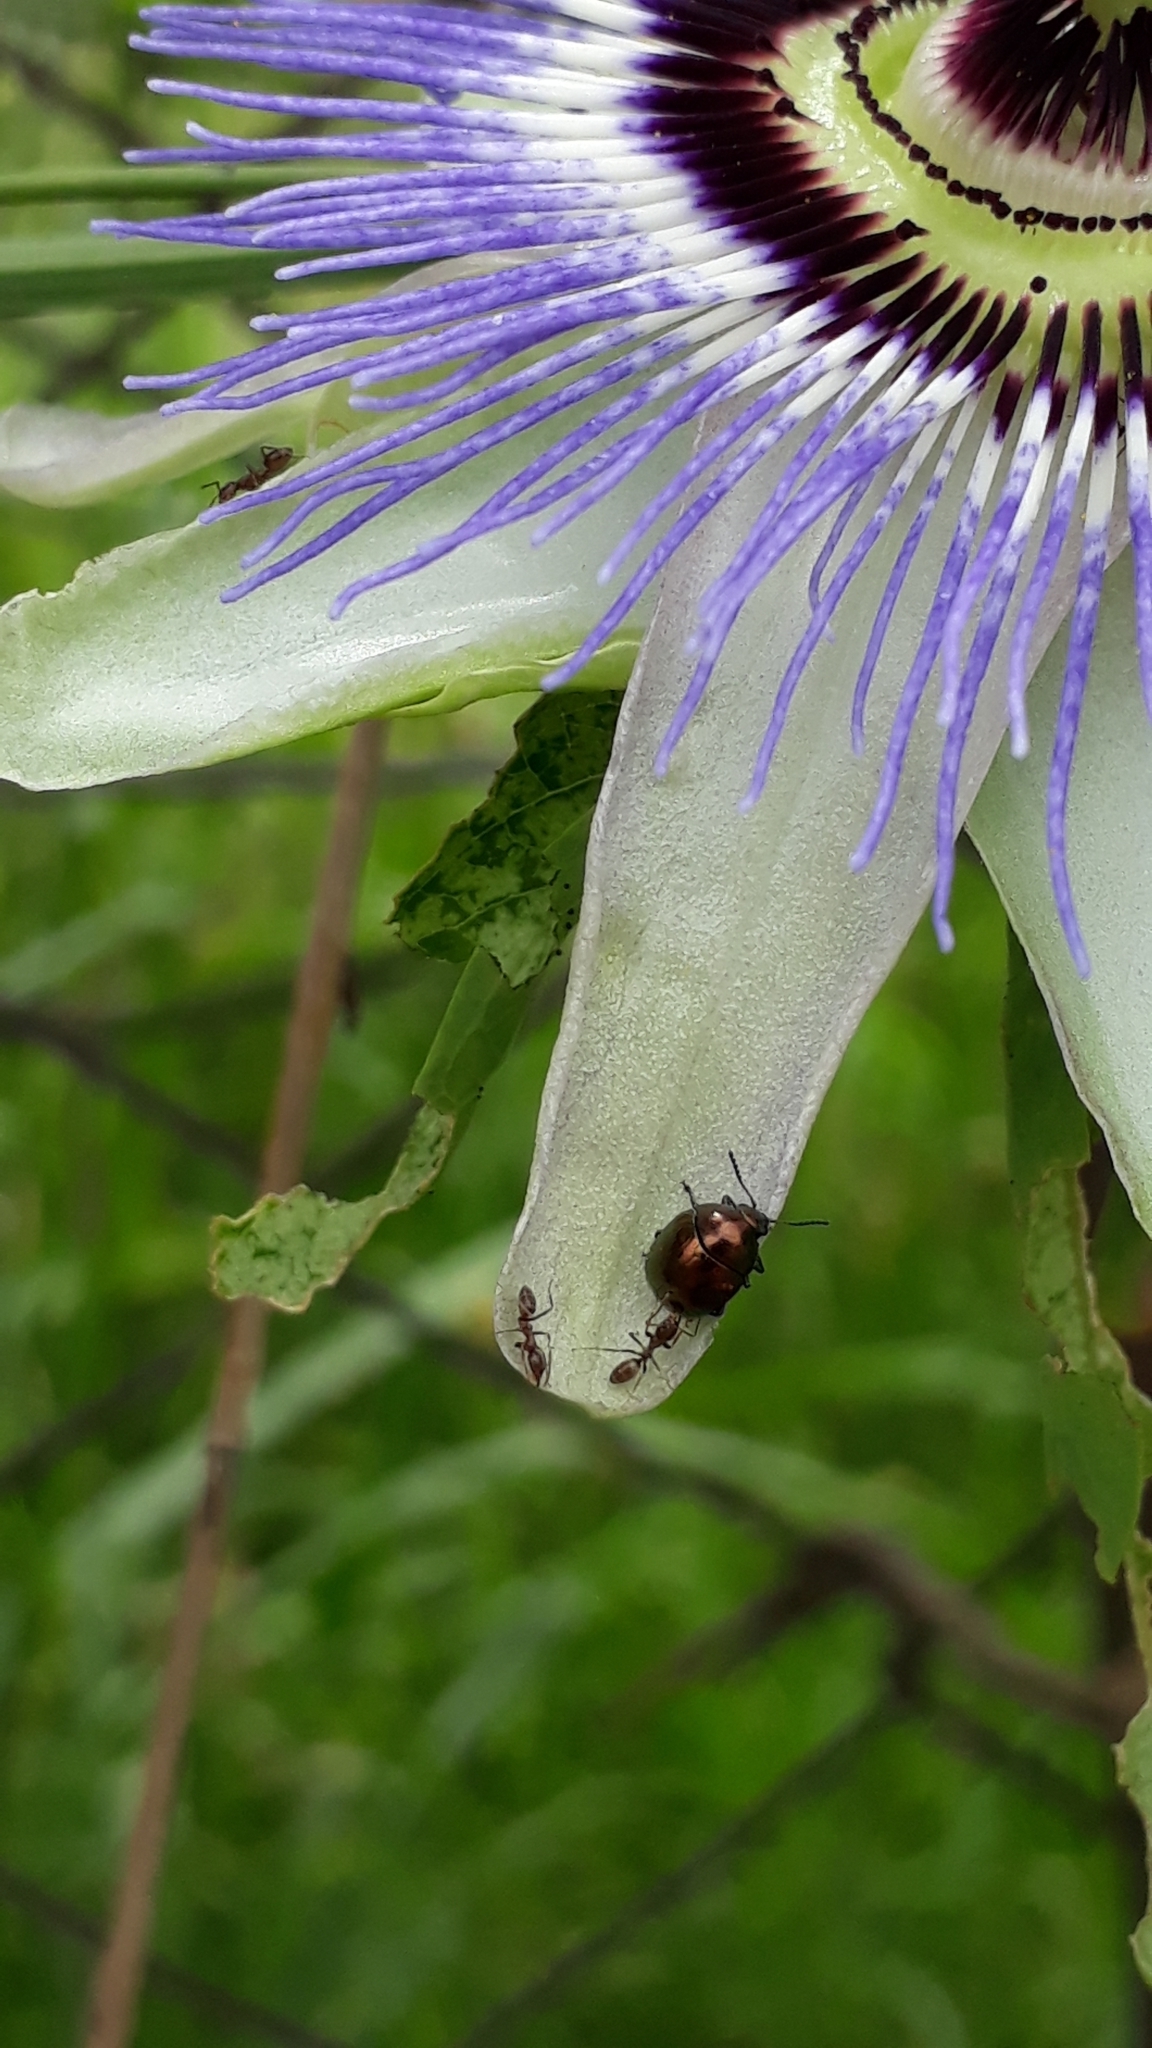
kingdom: Animalia
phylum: Arthropoda
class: Insecta
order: Hymenoptera
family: Formicidae
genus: Linepithema
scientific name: Linepithema humile
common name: Argentine ant
